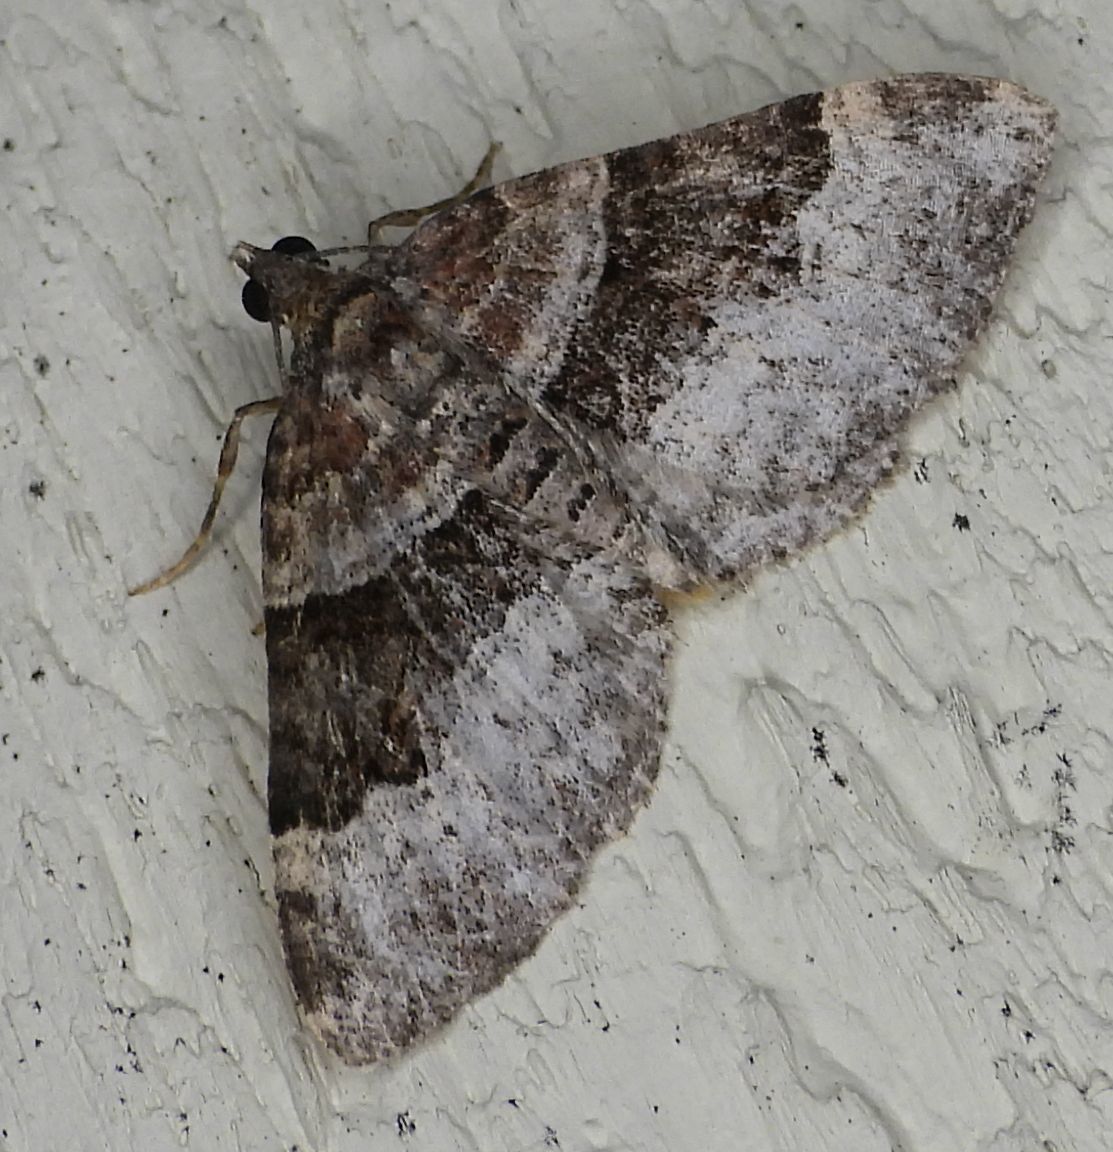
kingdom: Animalia
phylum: Arthropoda
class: Insecta
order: Lepidoptera
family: Geometridae
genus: Xanthorhoe
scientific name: Xanthorhoe lacustrata
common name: Toothed brown carpet
